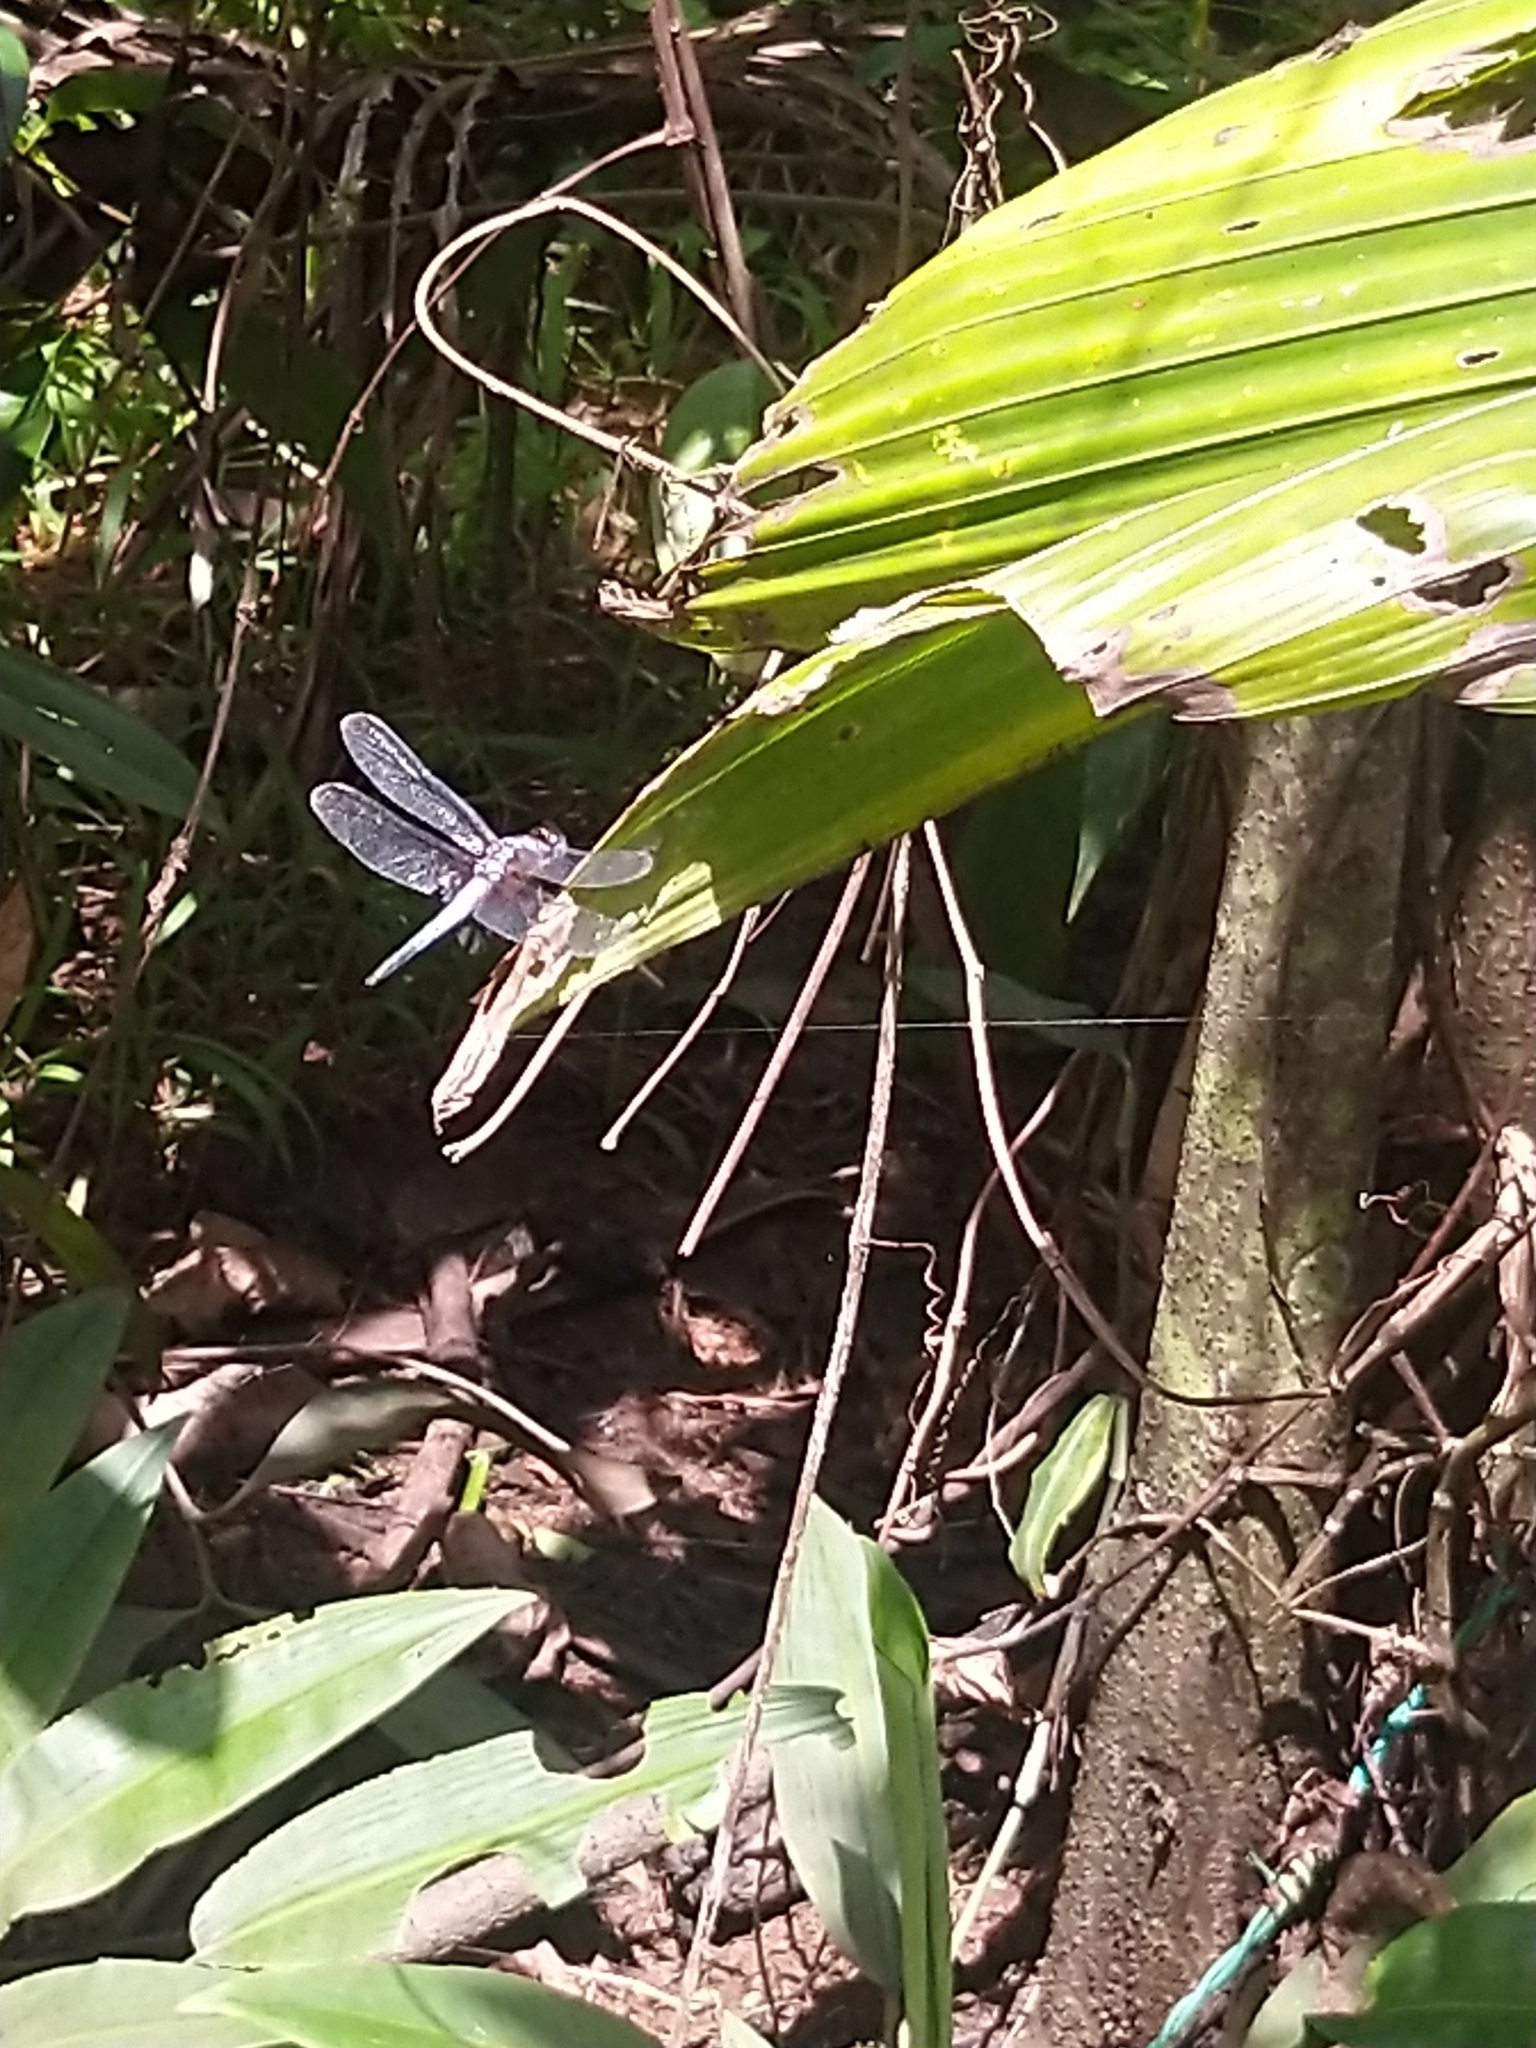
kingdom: Animalia
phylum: Arthropoda
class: Insecta
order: Odonata
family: Libellulidae
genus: Brachydiplax
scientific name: Brachydiplax chalybea
